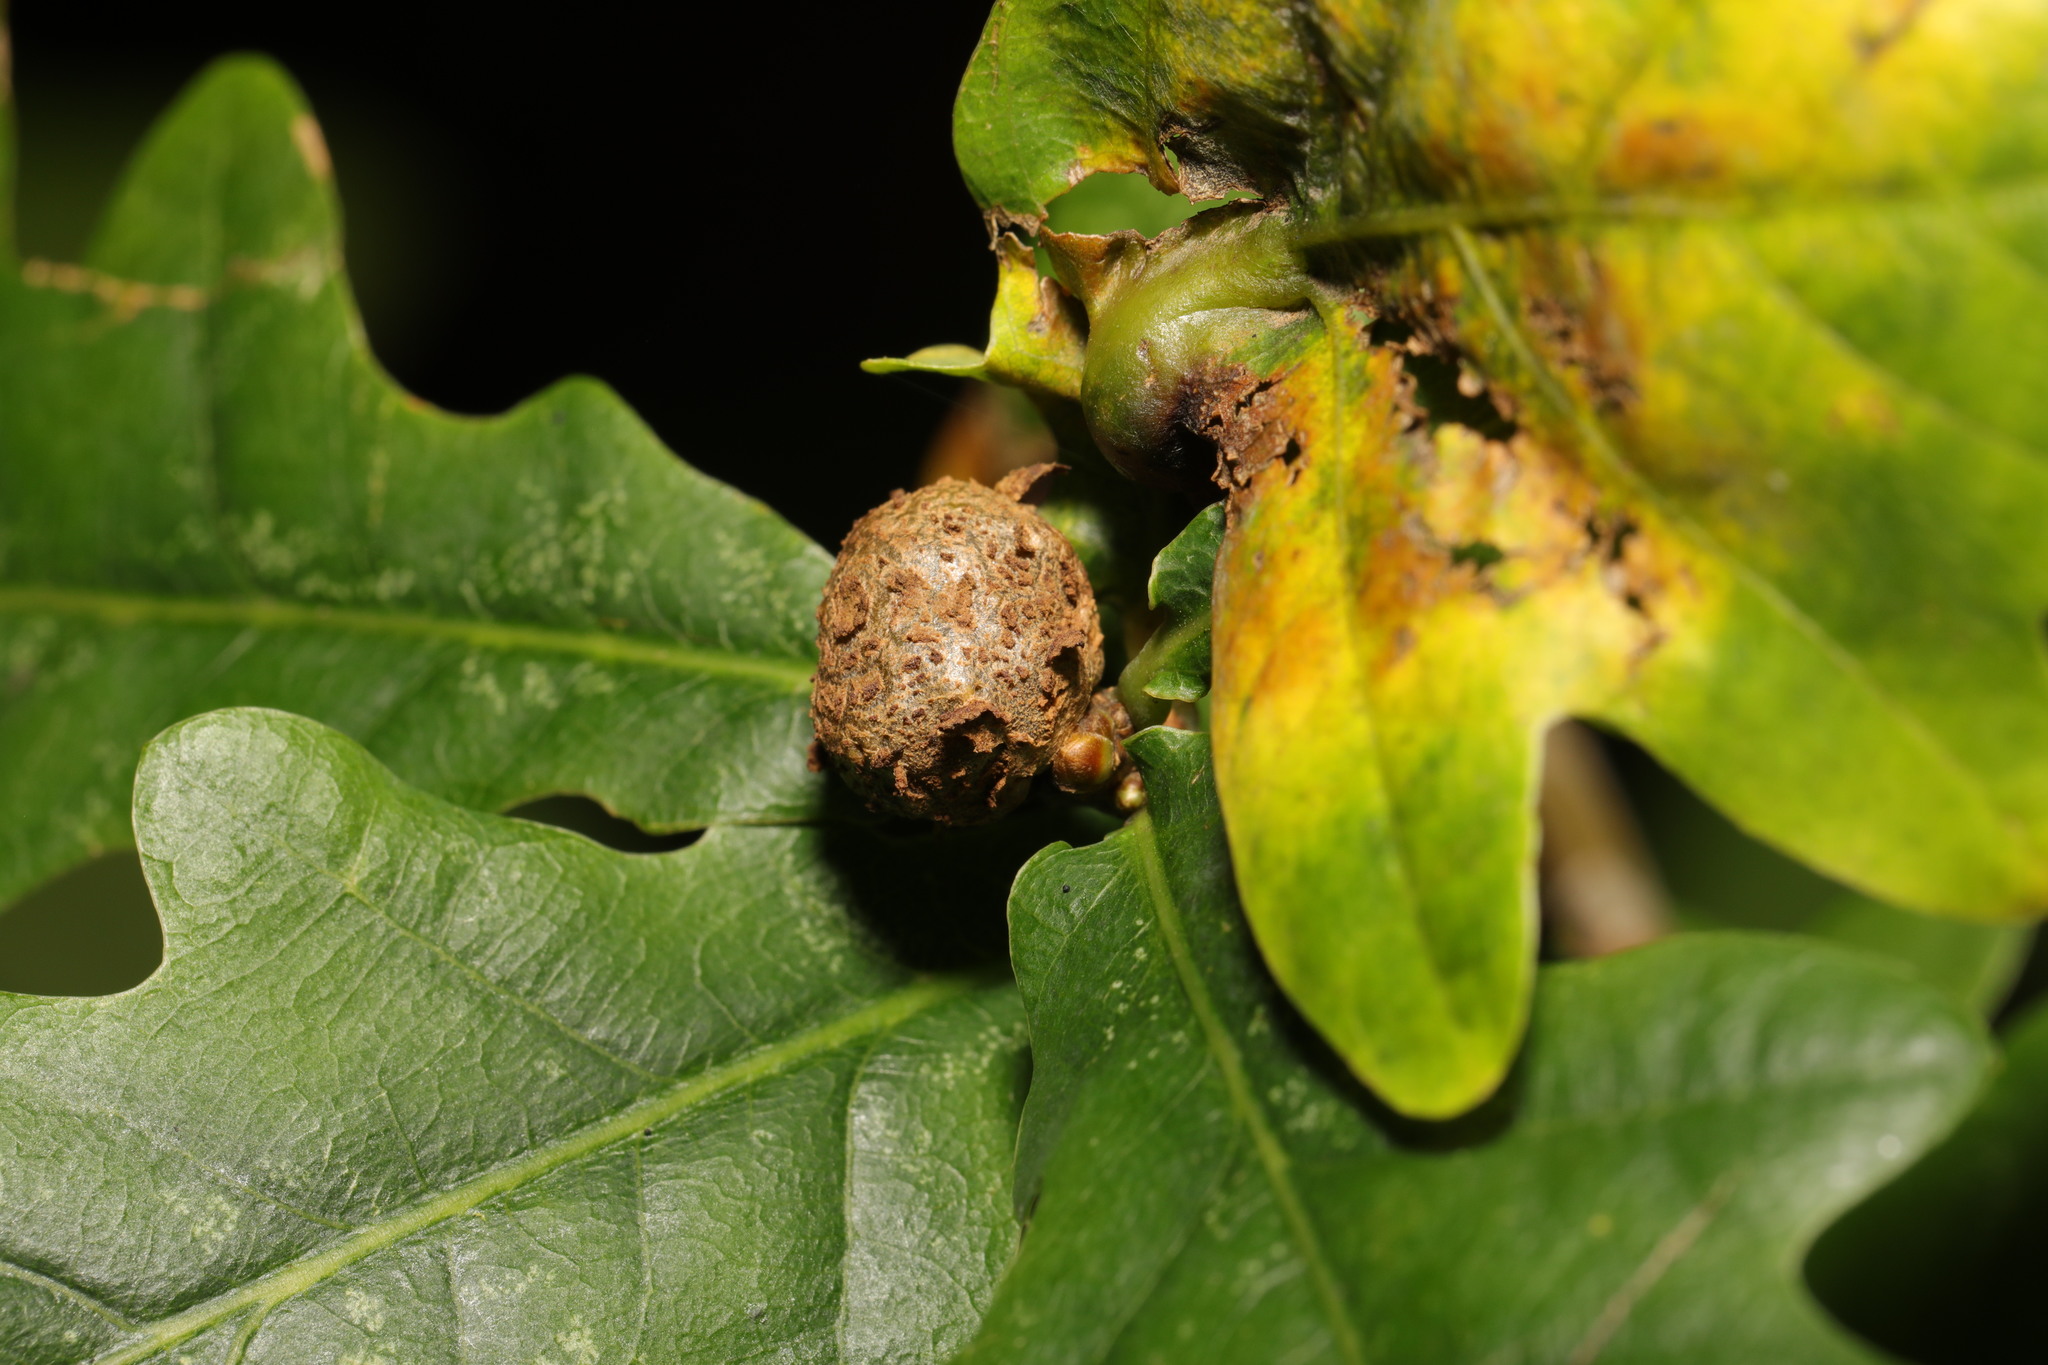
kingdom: Animalia
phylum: Arthropoda
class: Insecta
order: Hymenoptera
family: Cynipidae
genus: Andricus
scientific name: Andricus lignicolus
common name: Cola-nut gall
